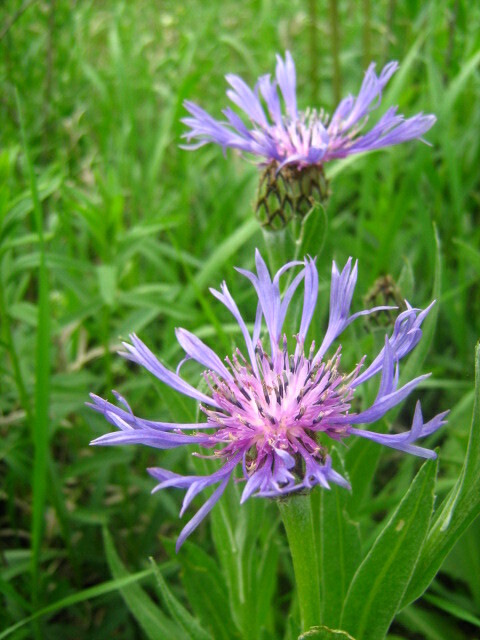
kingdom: Plantae
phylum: Tracheophyta
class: Magnoliopsida
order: Asterales
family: Asteraceae
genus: Centaurea
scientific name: Centaurea tanaitica
